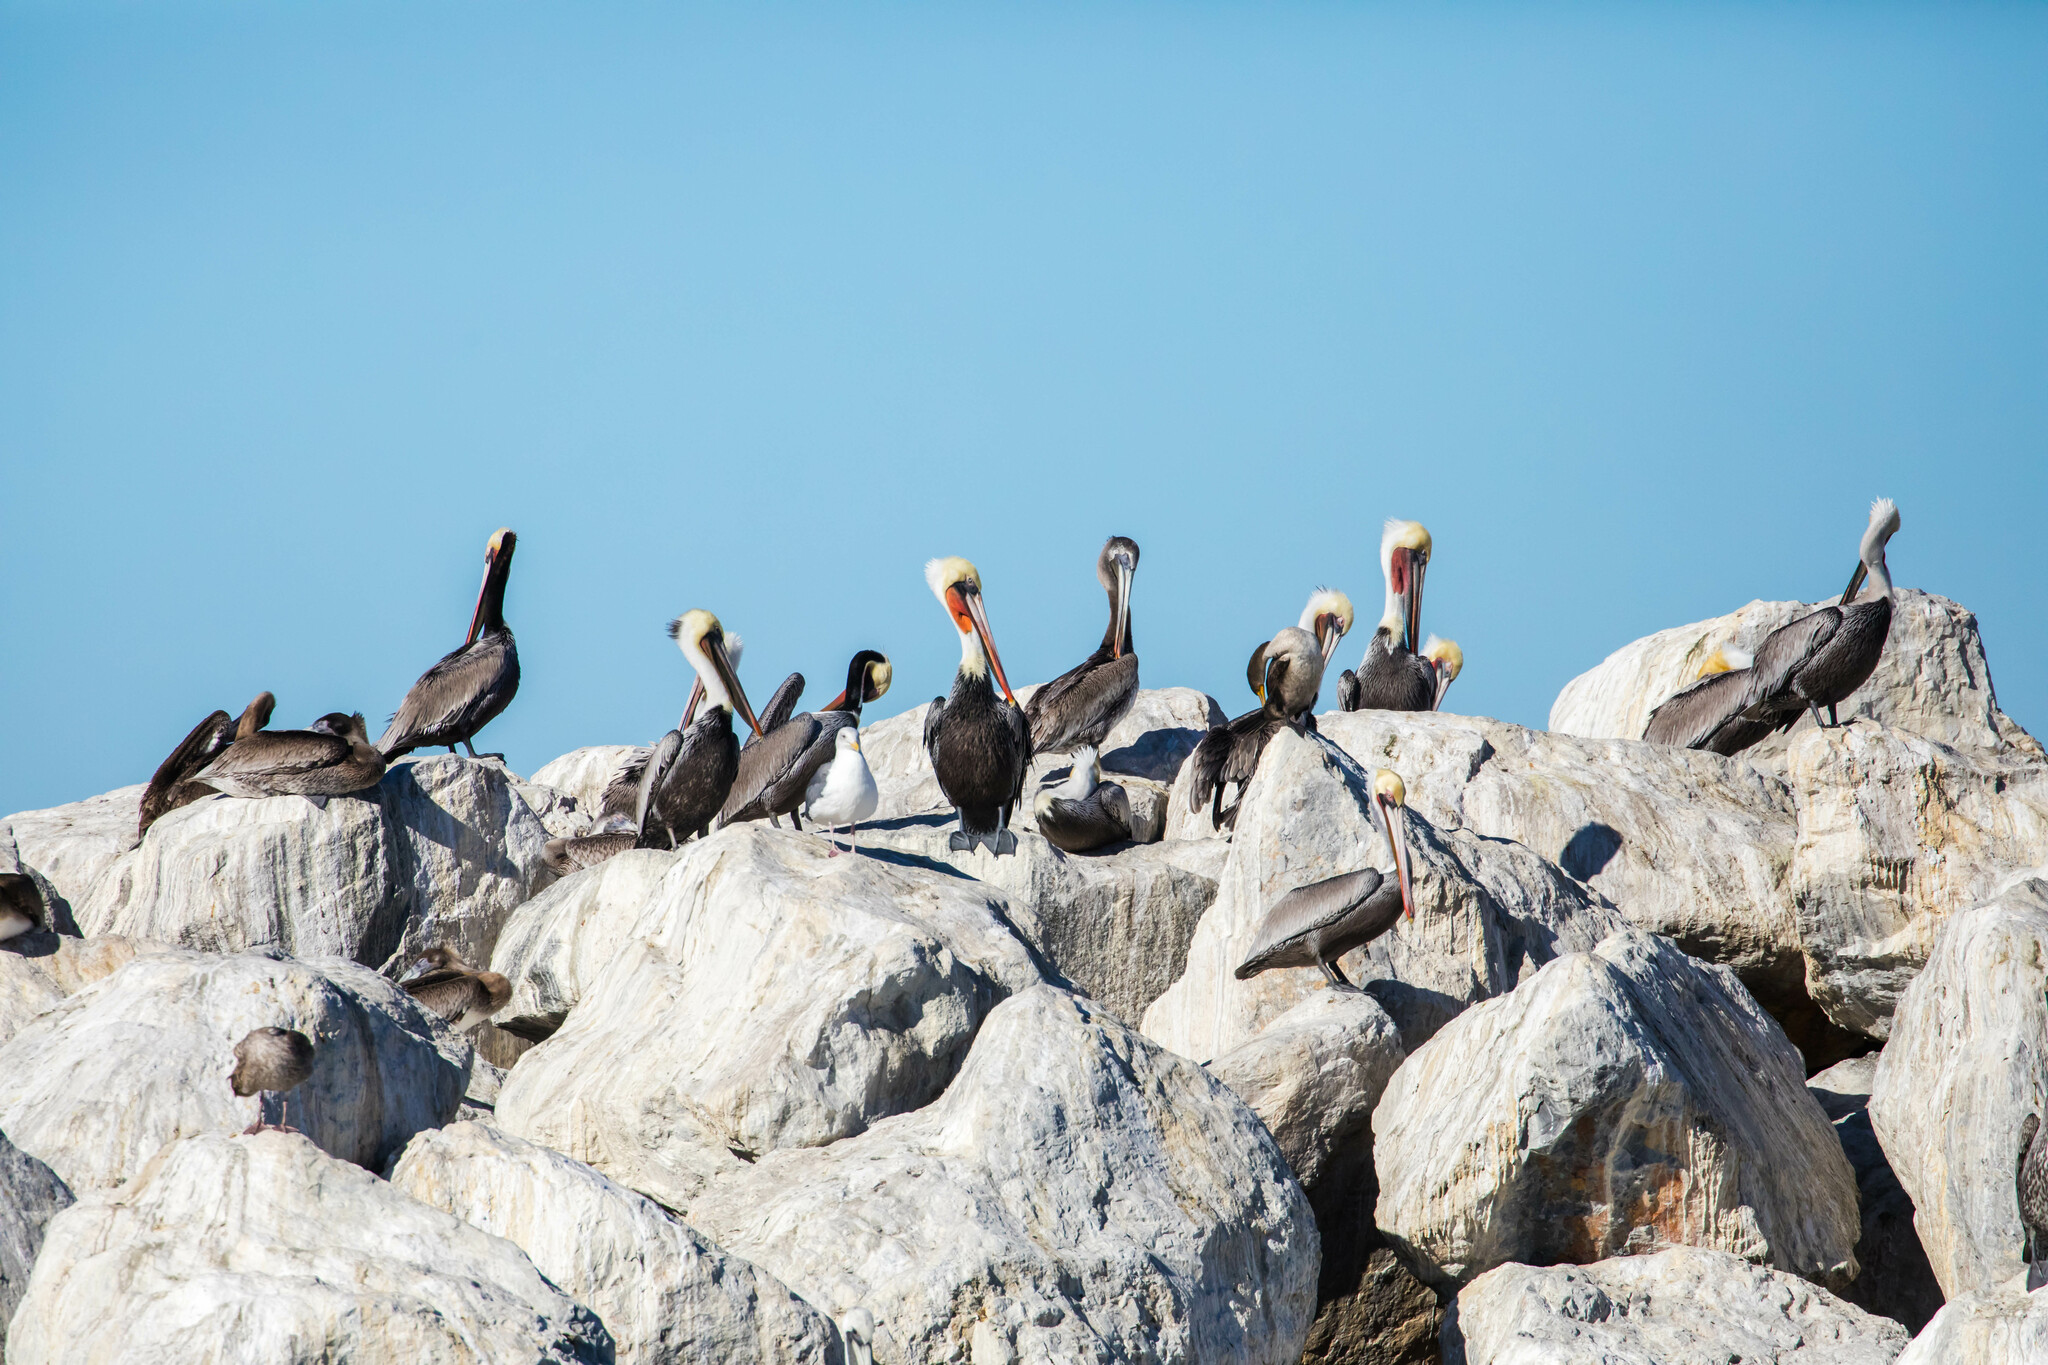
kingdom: Animalia
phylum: Chordata
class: Aves
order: Pelecaniformes
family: Pelecanidae
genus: Pelecanus
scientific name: Pelecanus occidentalis
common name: Brown pelican
